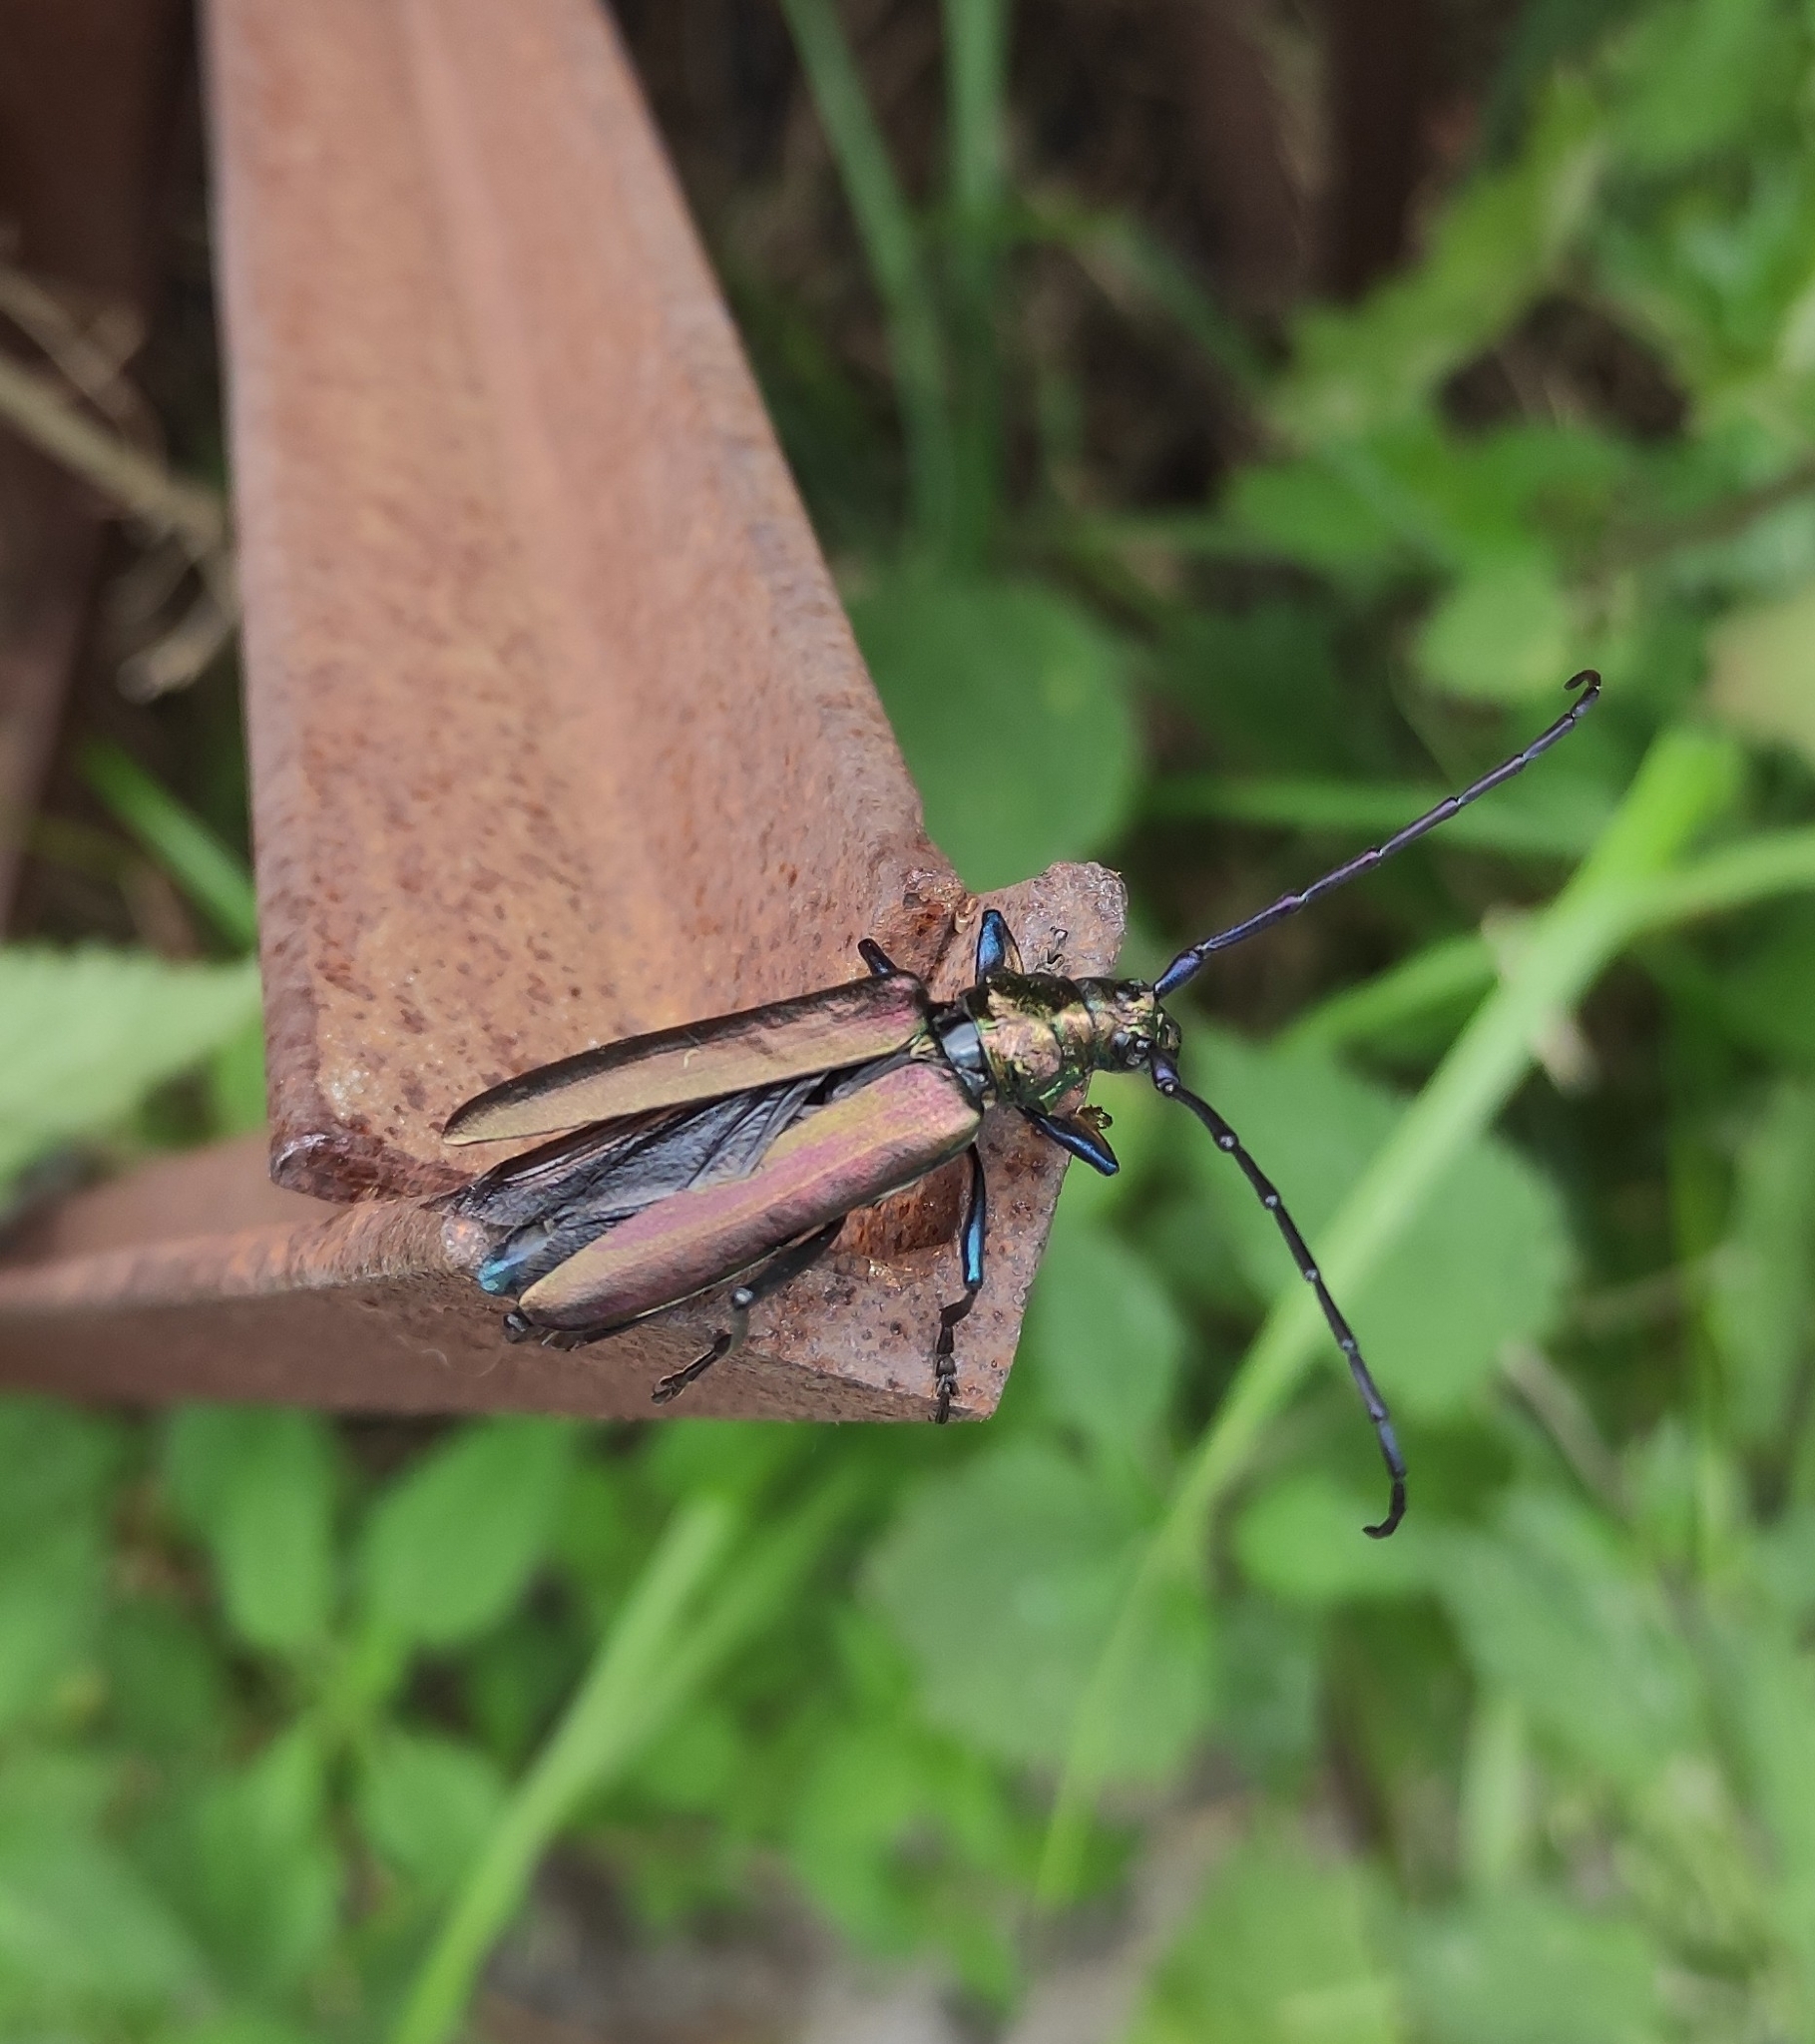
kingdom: Animalia
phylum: Arthropoda
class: Insecta
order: Coleoptera
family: Cerambycidae
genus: Aromia
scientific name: Aromia moschata
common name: Musk beetle
